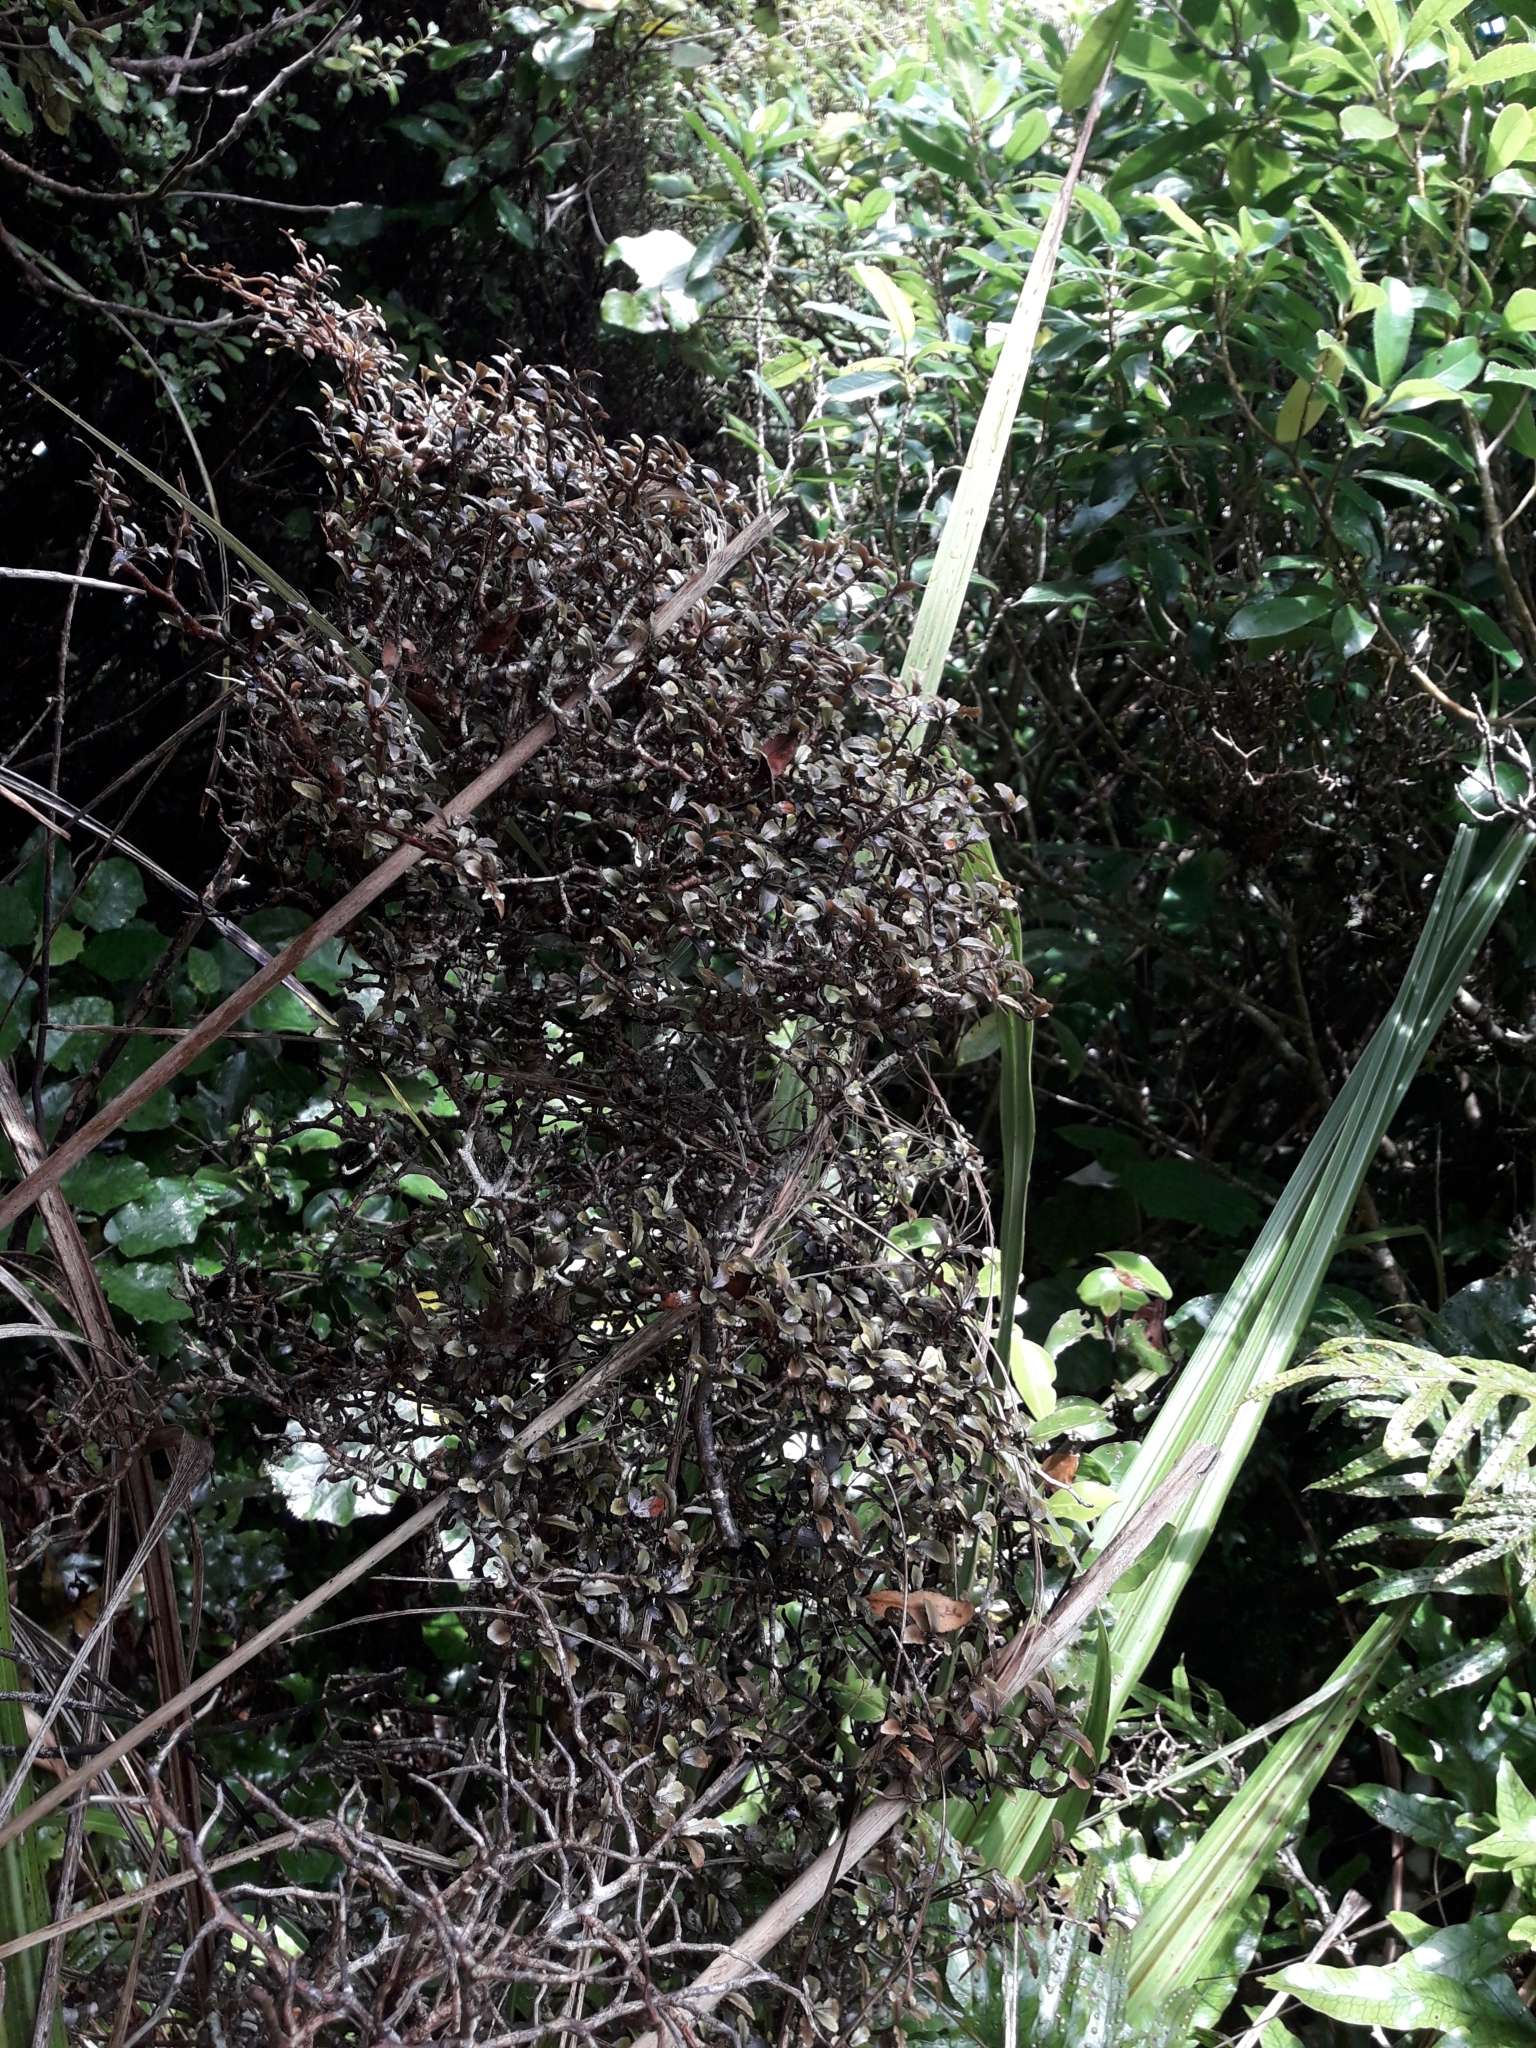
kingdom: Plantae
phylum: Tracheophyta
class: Magnoliopsida
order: Oxalidales
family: Elaeocarpaceae
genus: Elaeocarpus
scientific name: Elaeocarpus hookerianus
